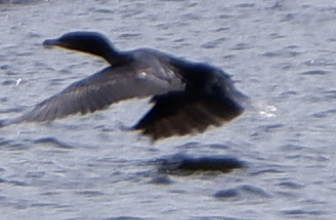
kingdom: Animalia
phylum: Chordata
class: Aves
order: Suliformes
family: Phalacrocoracidae
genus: Phalacrocorax
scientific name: Phalacrocorax auritus
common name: Double-crested cormorant
